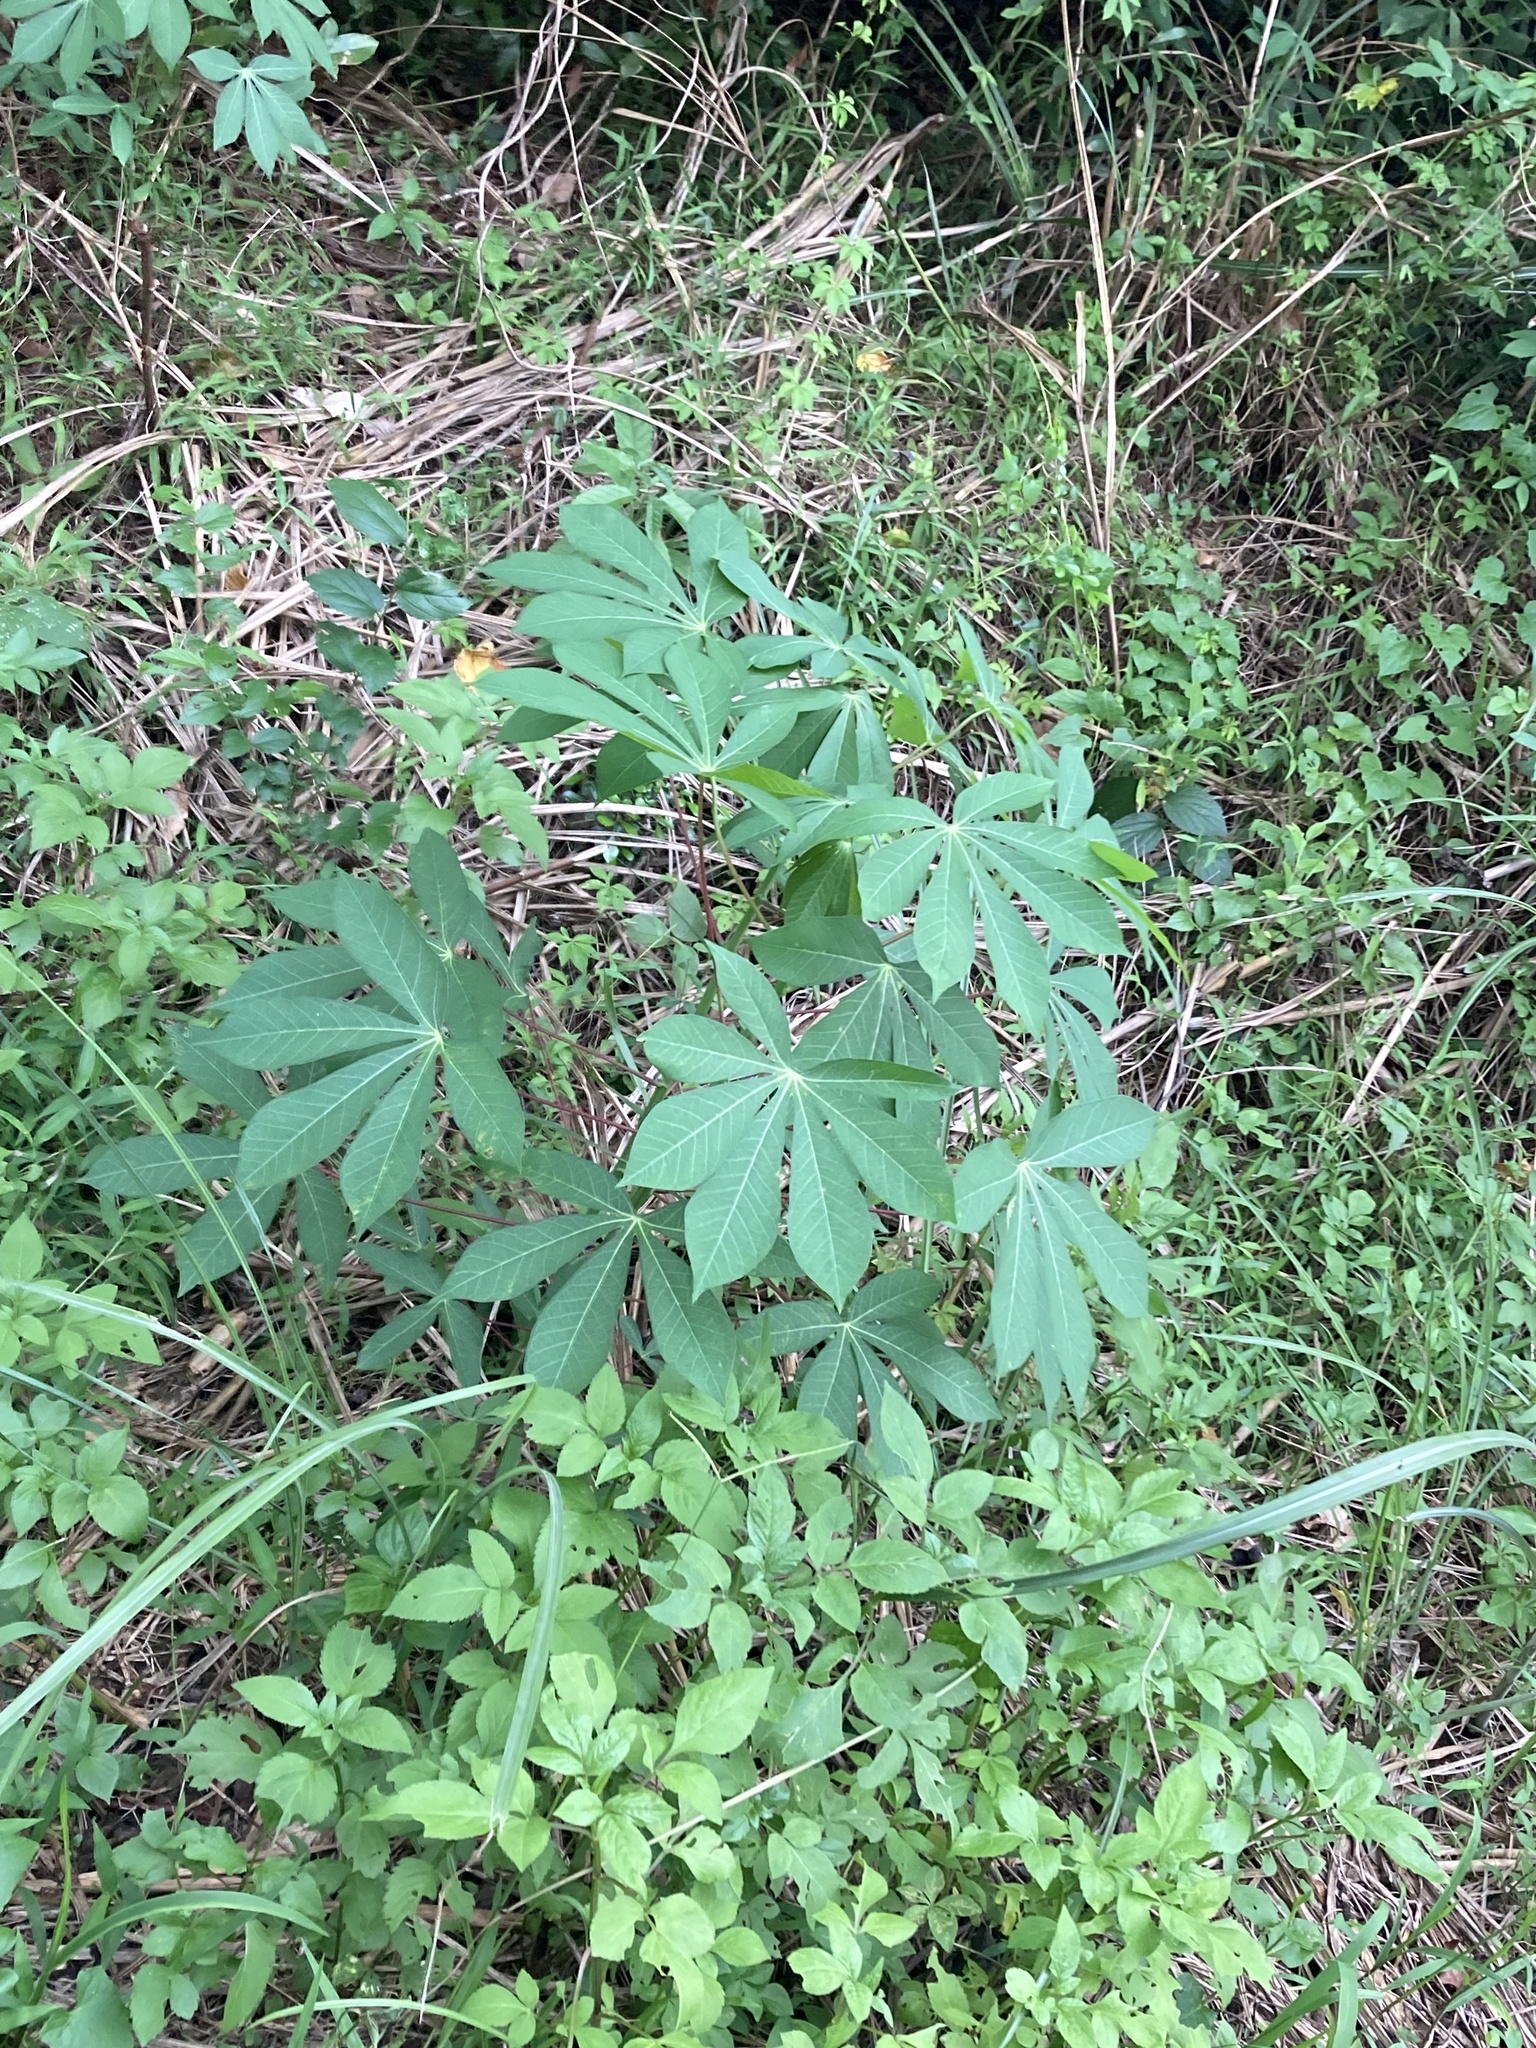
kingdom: Plantae
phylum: Tracheophyta
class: Magnoliopsida
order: Malpighiales
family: Euphorbiaceae
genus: Manihot
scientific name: Manihot esculenta
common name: Cassava
